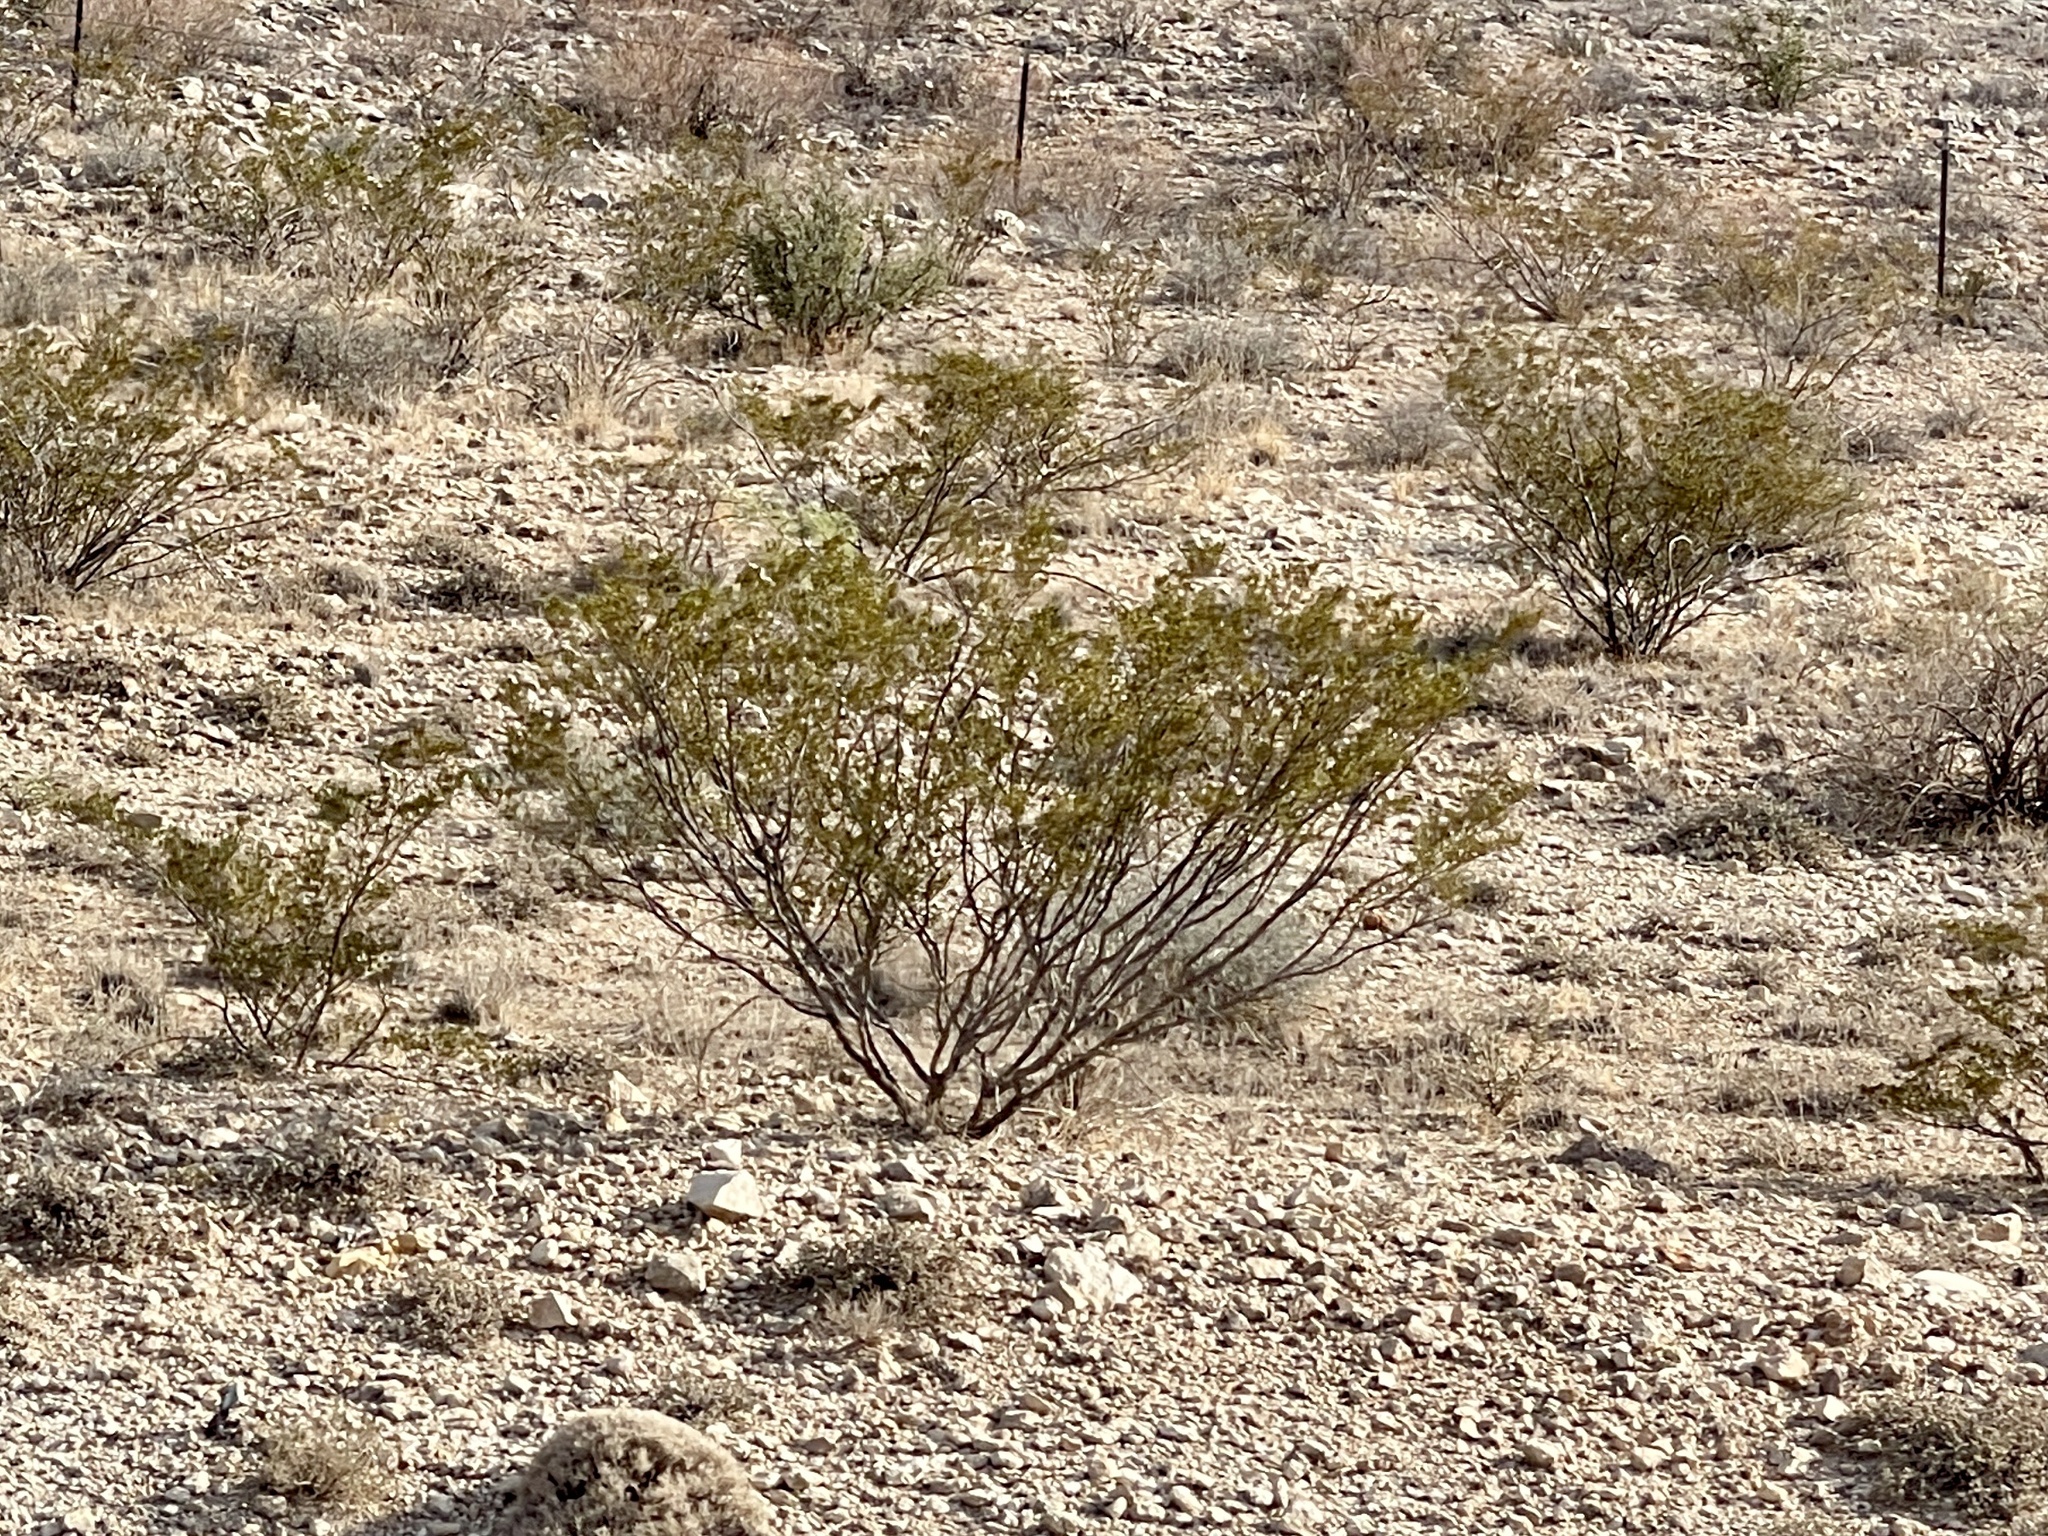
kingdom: Plantae
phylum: Tracheophyta
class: Magnoliopsida
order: Zygophyllales
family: Zygophyllaceae
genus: Larrea
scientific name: Larrea tridentata
